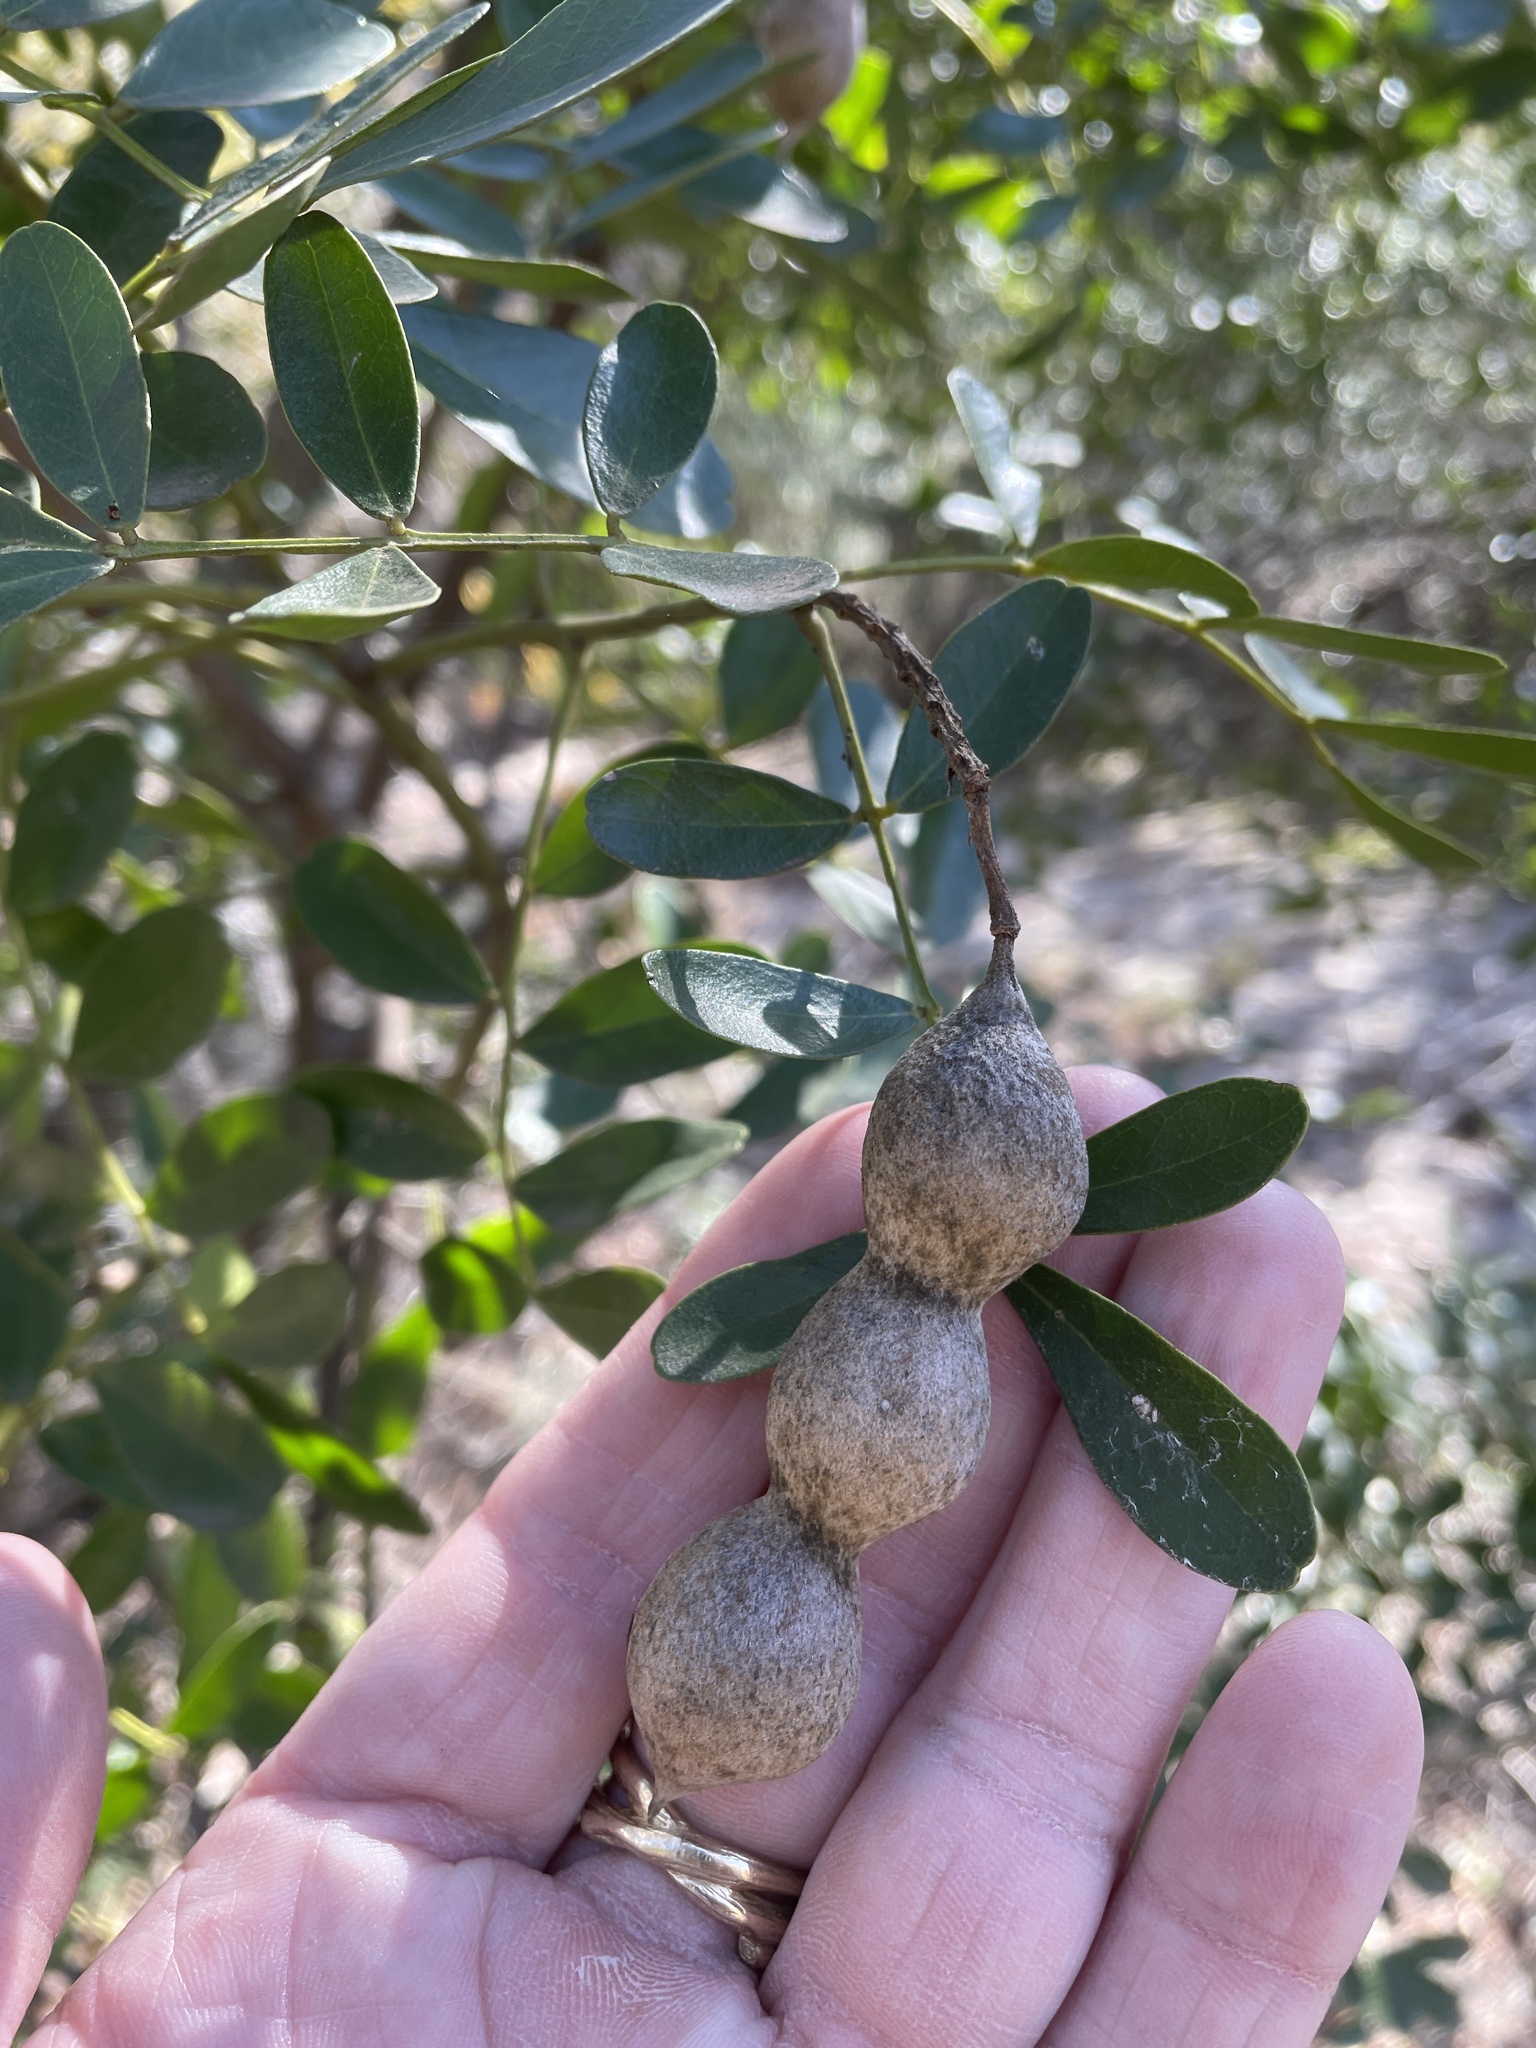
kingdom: Plantae
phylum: Tracheophyta
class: Magnoliopsida
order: Fabales
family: Fabaceae
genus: Dermatophyllum
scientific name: Dermatophyllum secundiflorum
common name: Texas-mountain-laurel
